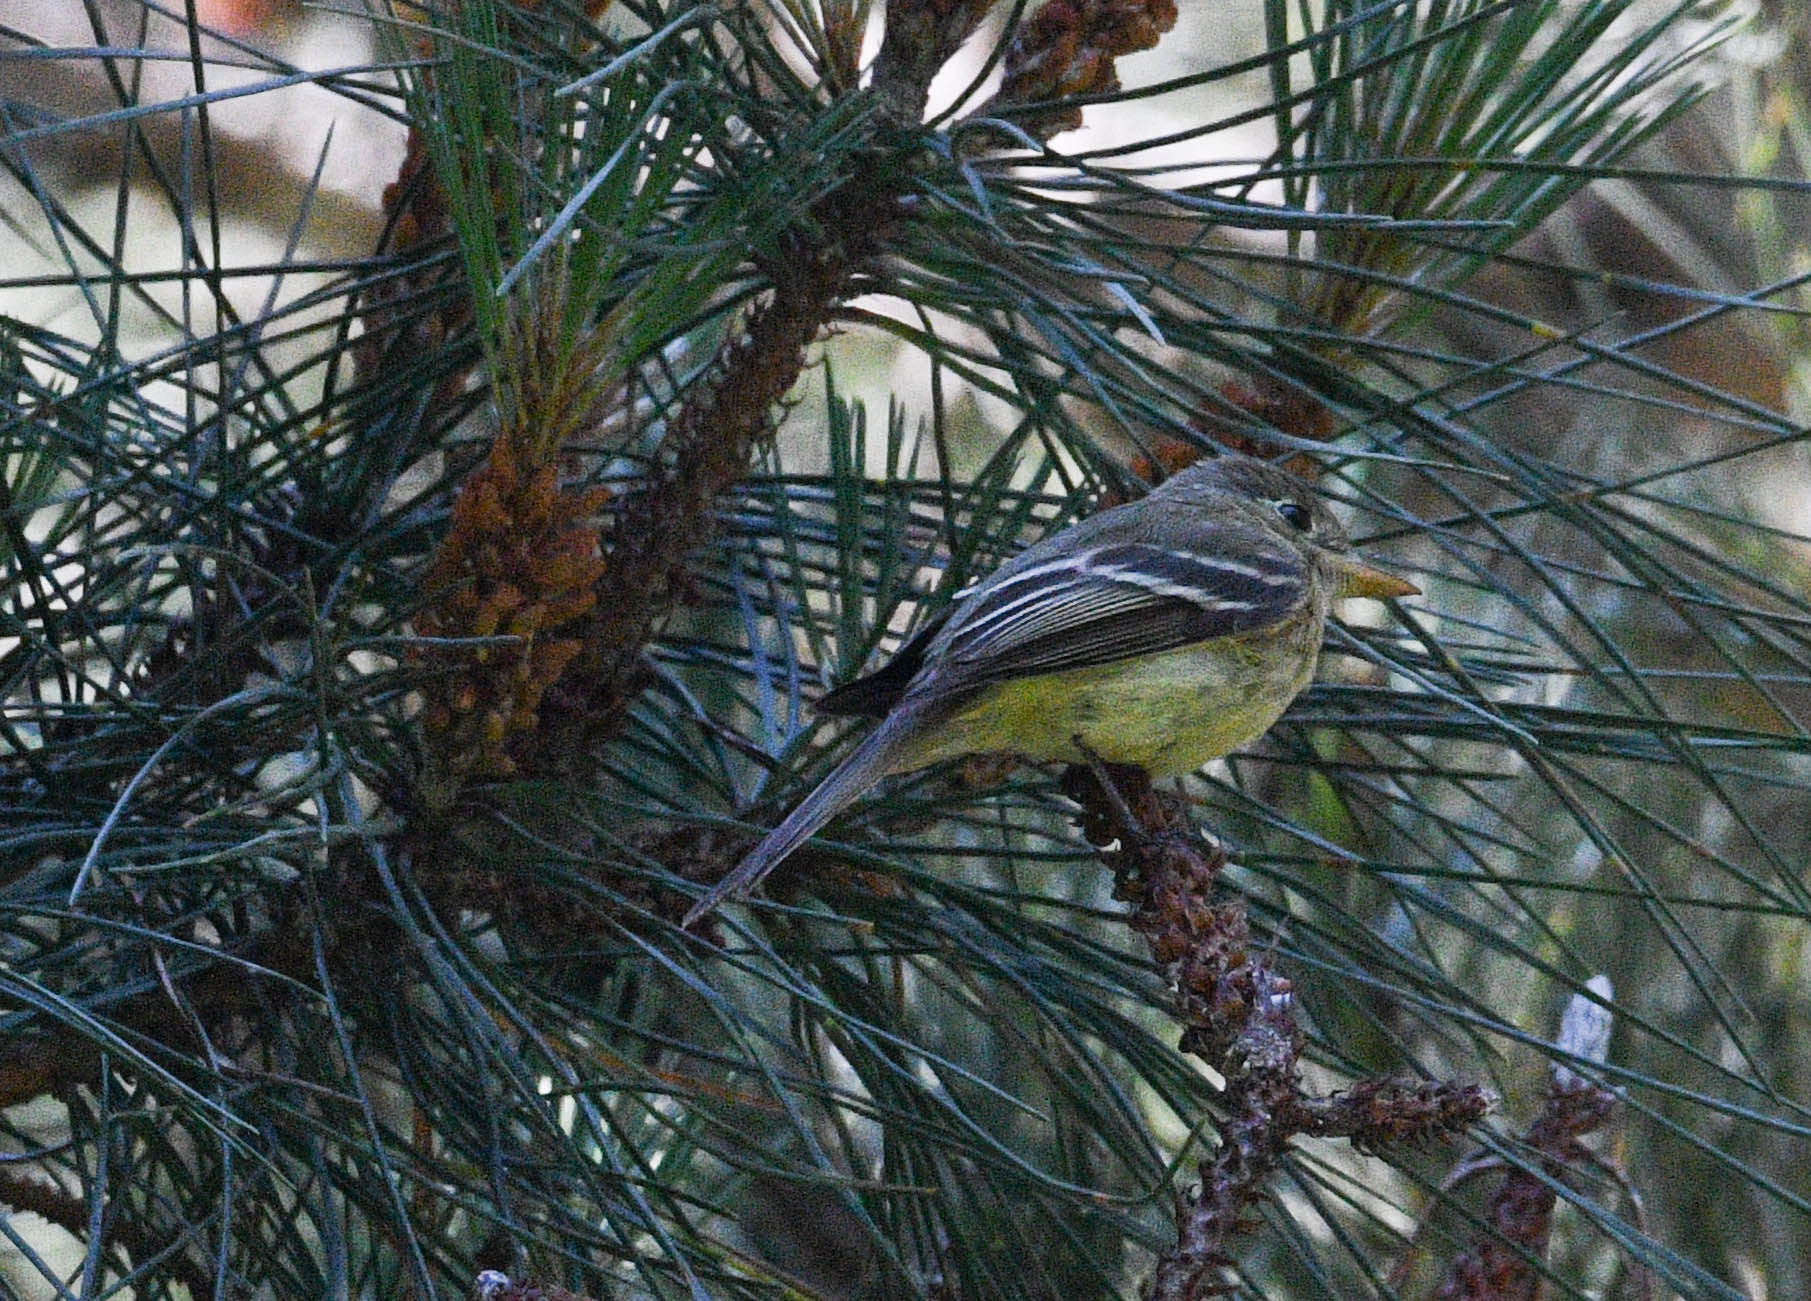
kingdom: Animalia
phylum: Chordata
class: Aves
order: Passeriformes
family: Tyrannidae
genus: Empidonax
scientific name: Empidonax difficilis
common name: Pacific-slope flycatcher
